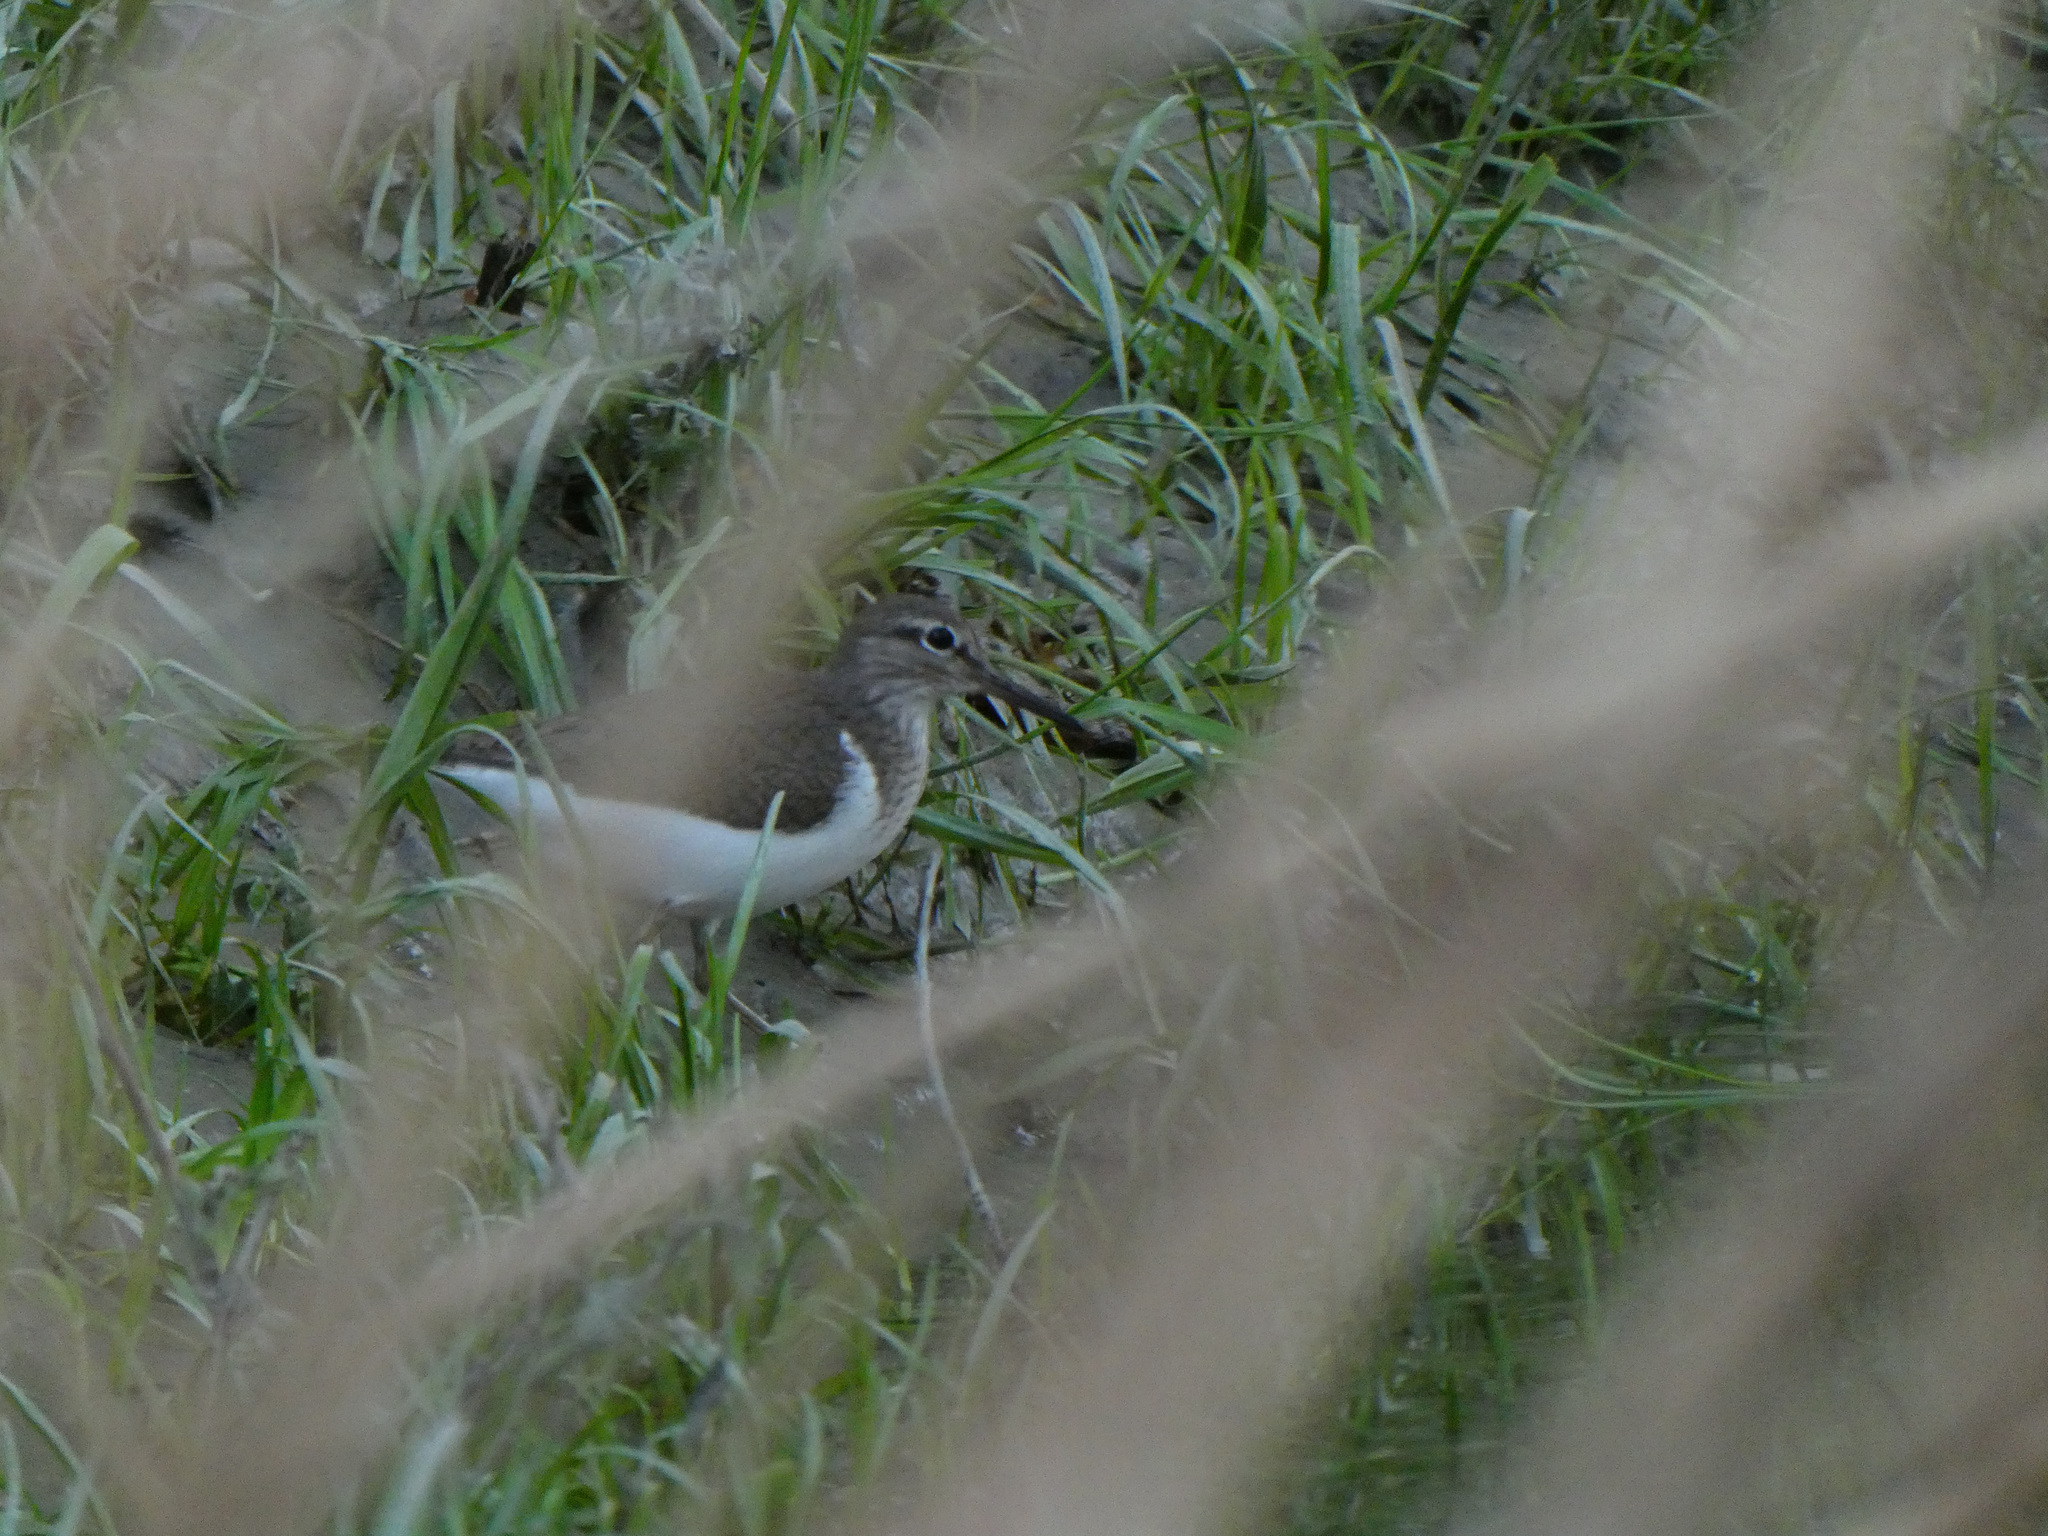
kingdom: Animalia
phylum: Chordata
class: Aves
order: Charadriiformes
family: Scolopacidae
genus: Actitis
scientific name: Actitis hypoleucos
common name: Common sandpiper
